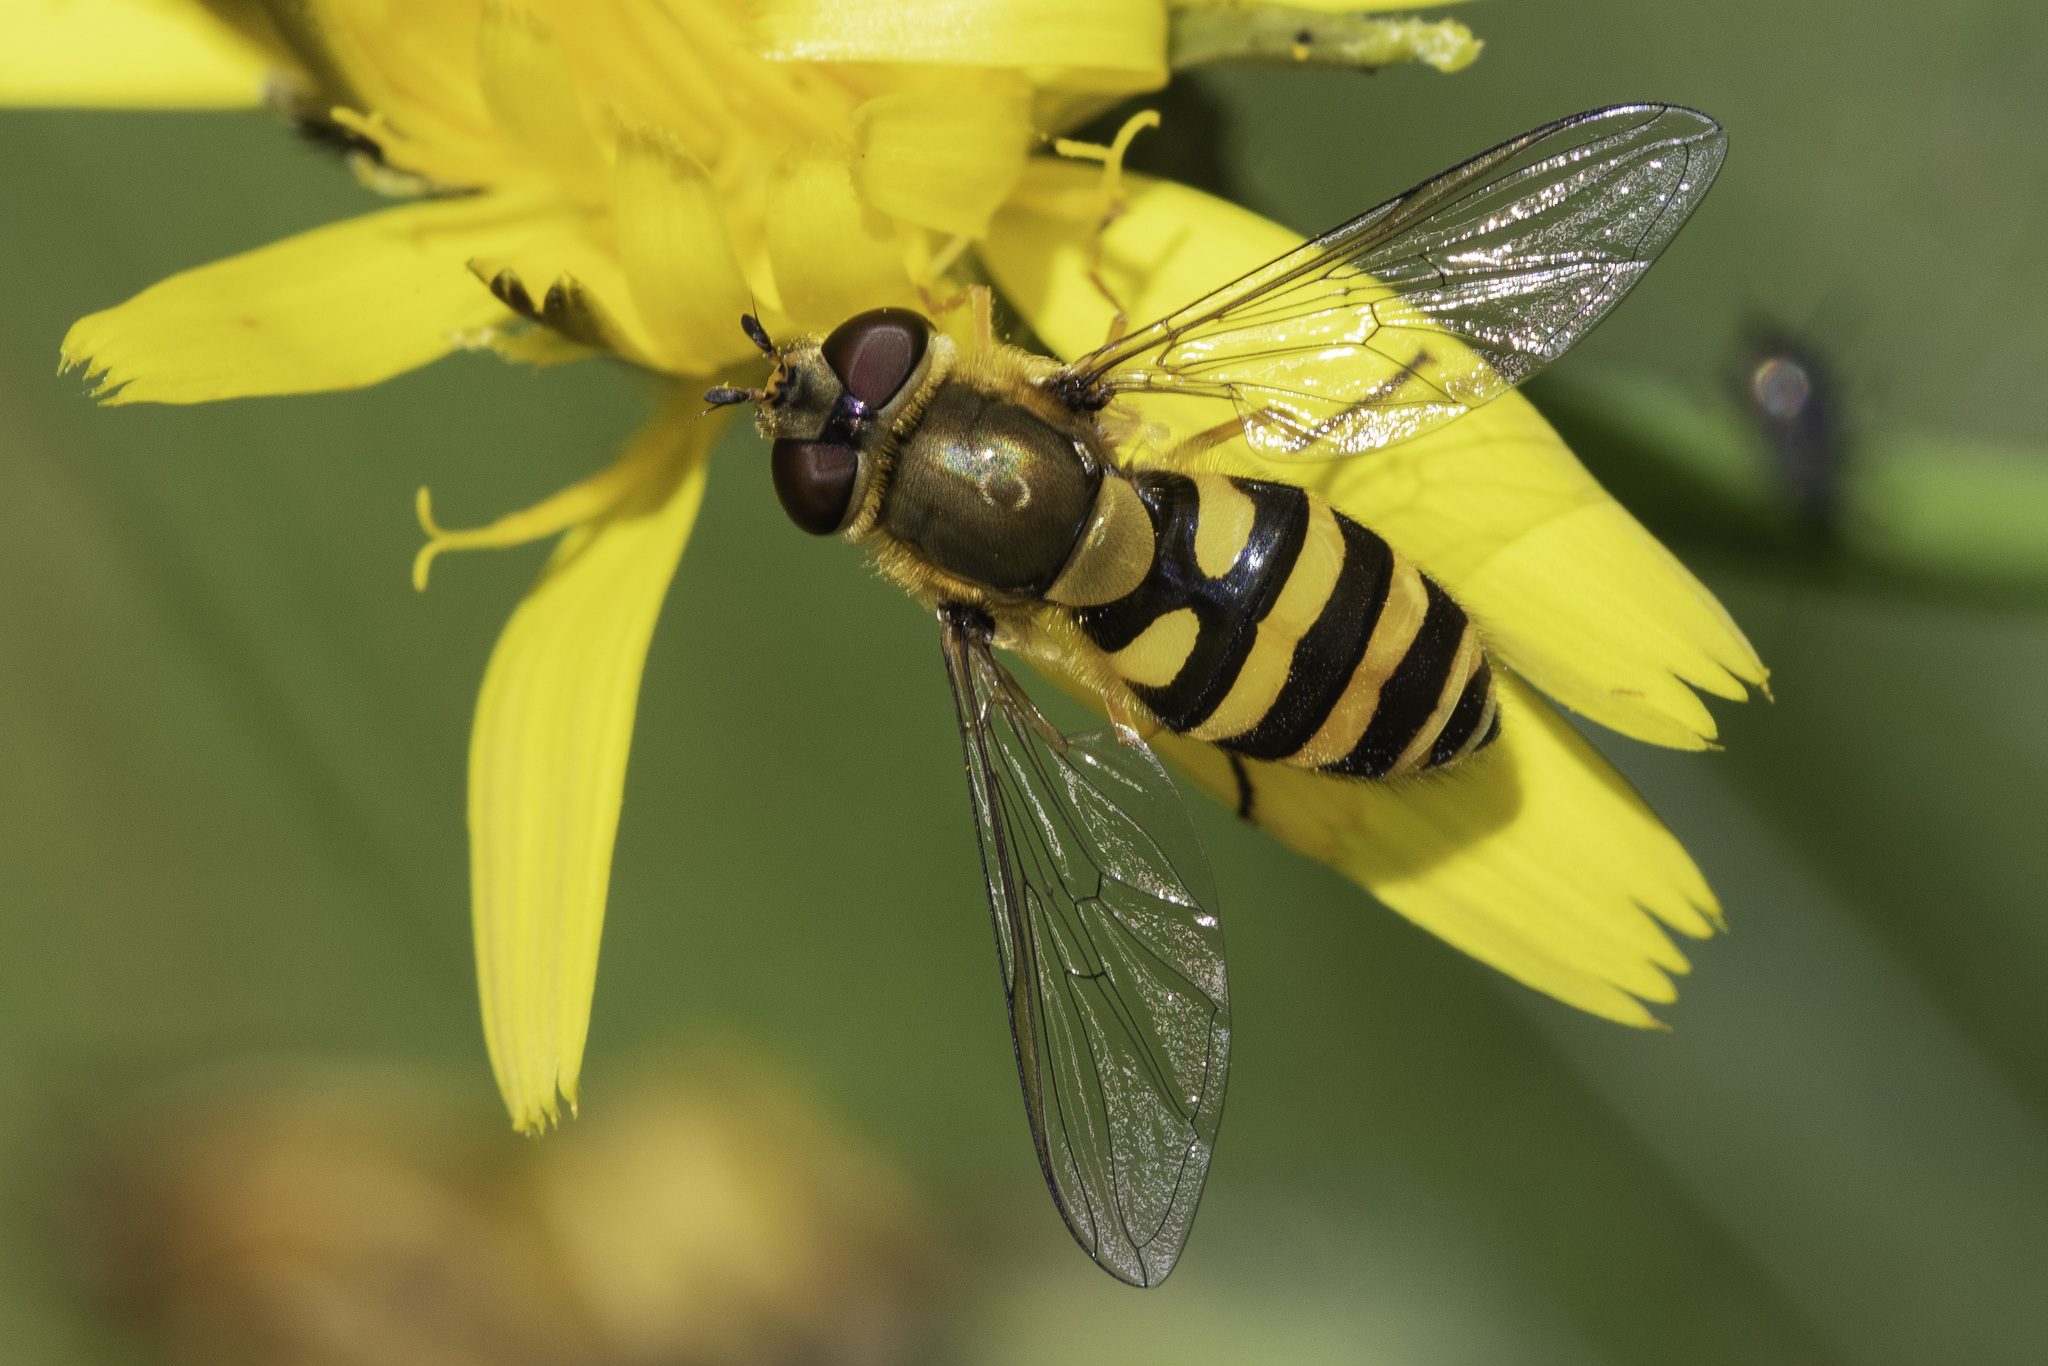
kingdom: Animalia
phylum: Arthropoda
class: Insecta
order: Diptera
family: Syrphidae
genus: Syrphus
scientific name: Syrphus ribesii
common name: Common flower fly
